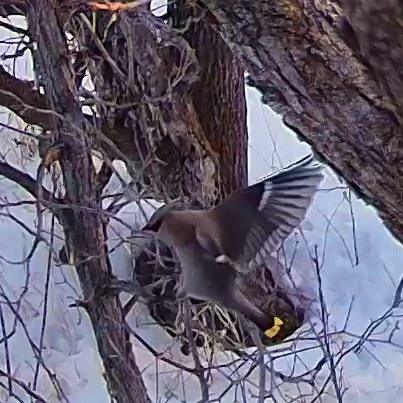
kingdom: Animalia
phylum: Chordata
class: Aves
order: Passeriformes
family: Bombycillidae
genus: Bombycilla
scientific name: Bombycilla cedrorum
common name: Cedar waxwing
